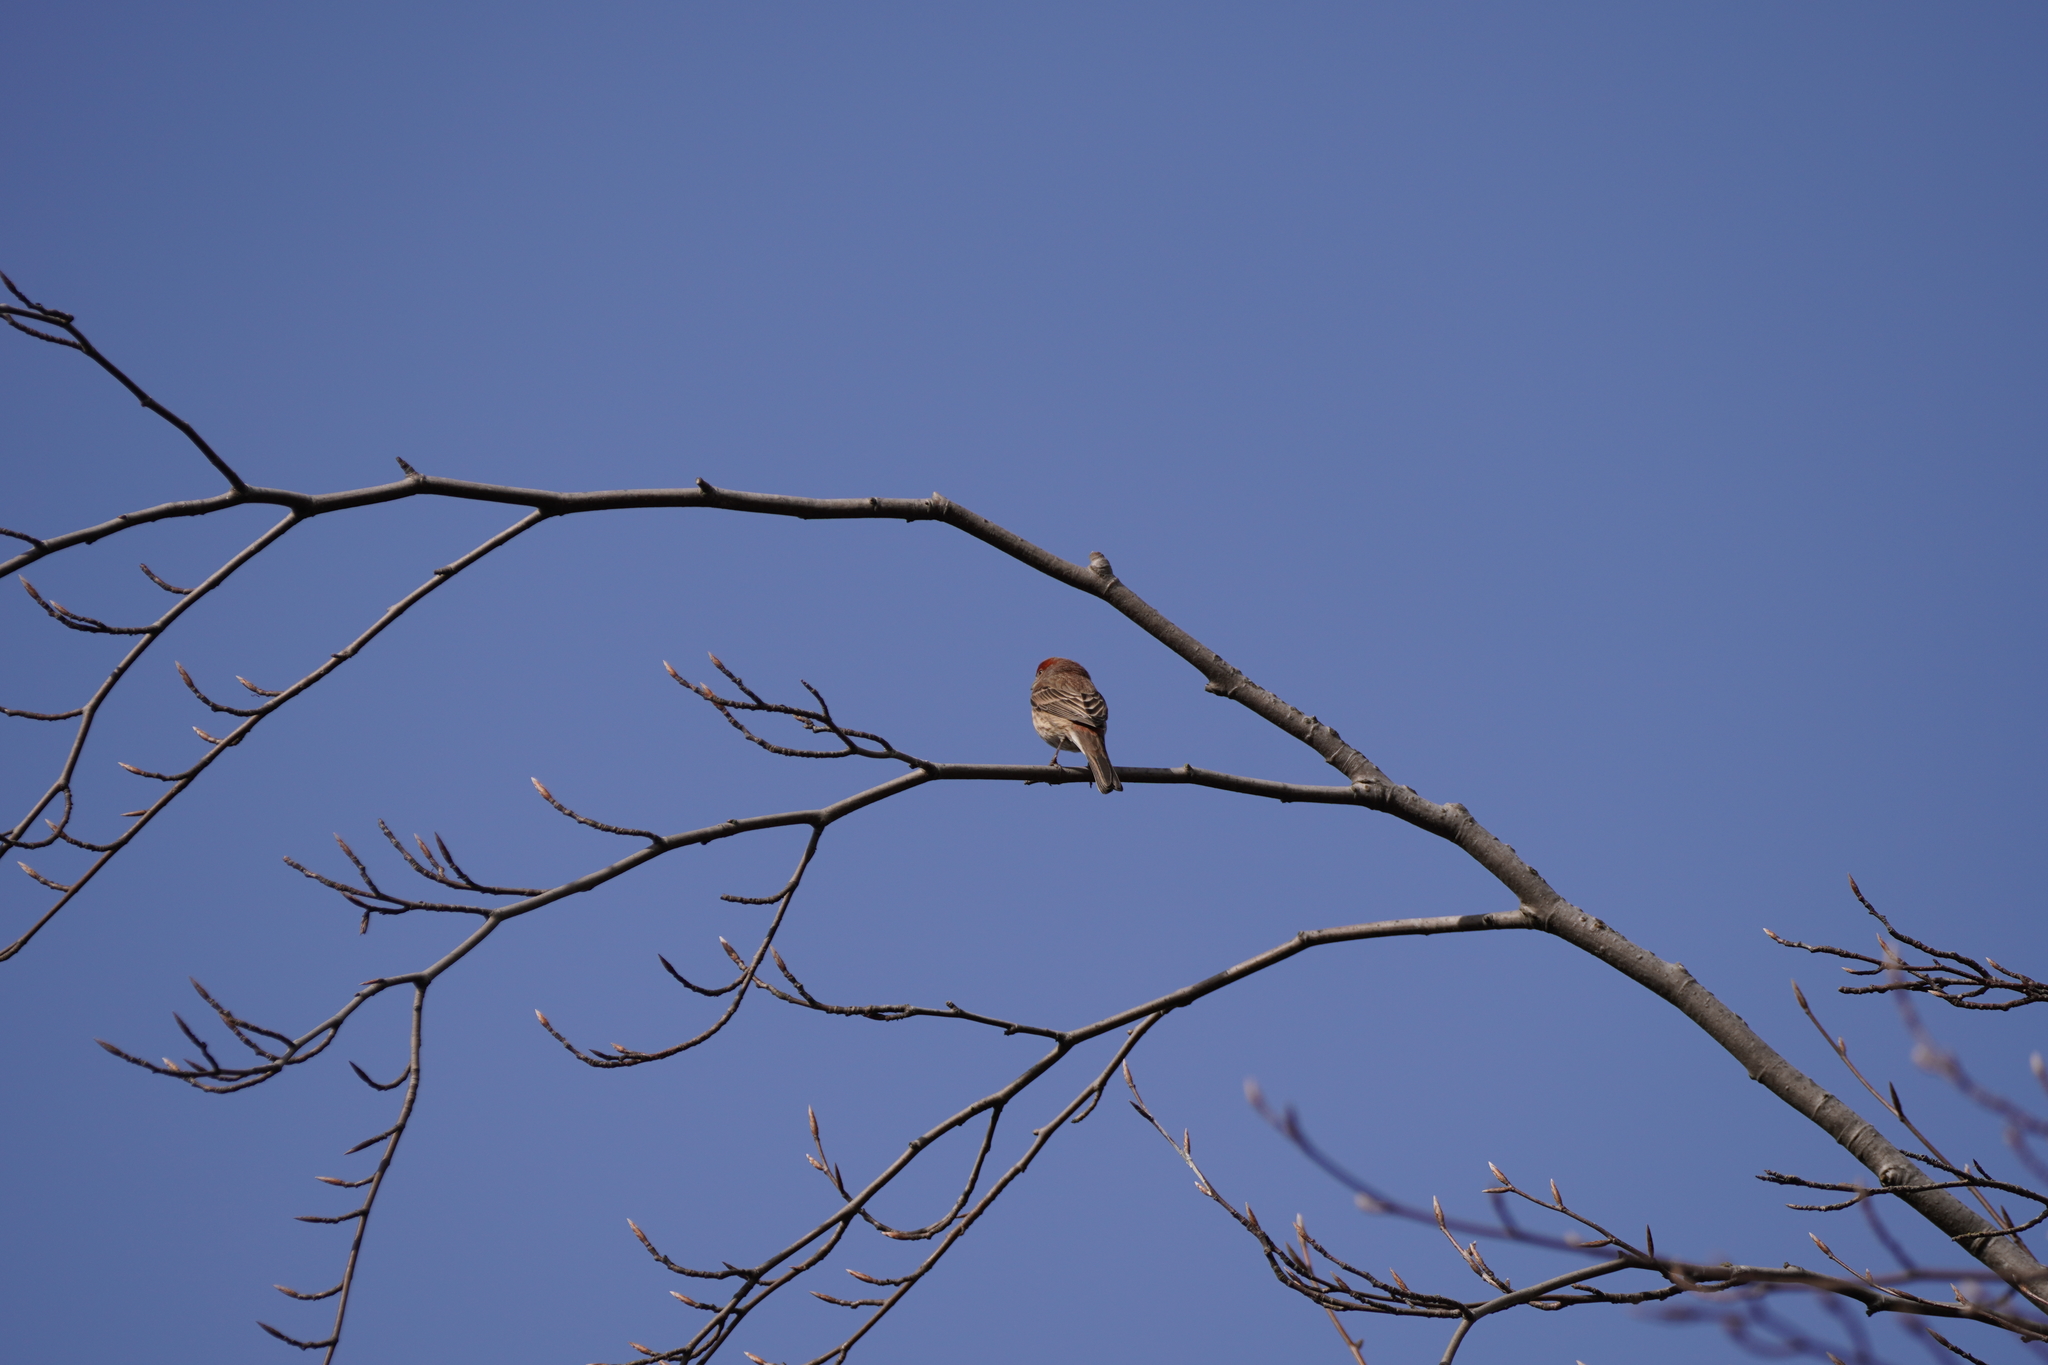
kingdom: Animalia
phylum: Chordata
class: Aves
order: Passeriformes
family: Fringillidae
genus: Haemorhous
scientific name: Haemorhous mexicanus
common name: House finch
